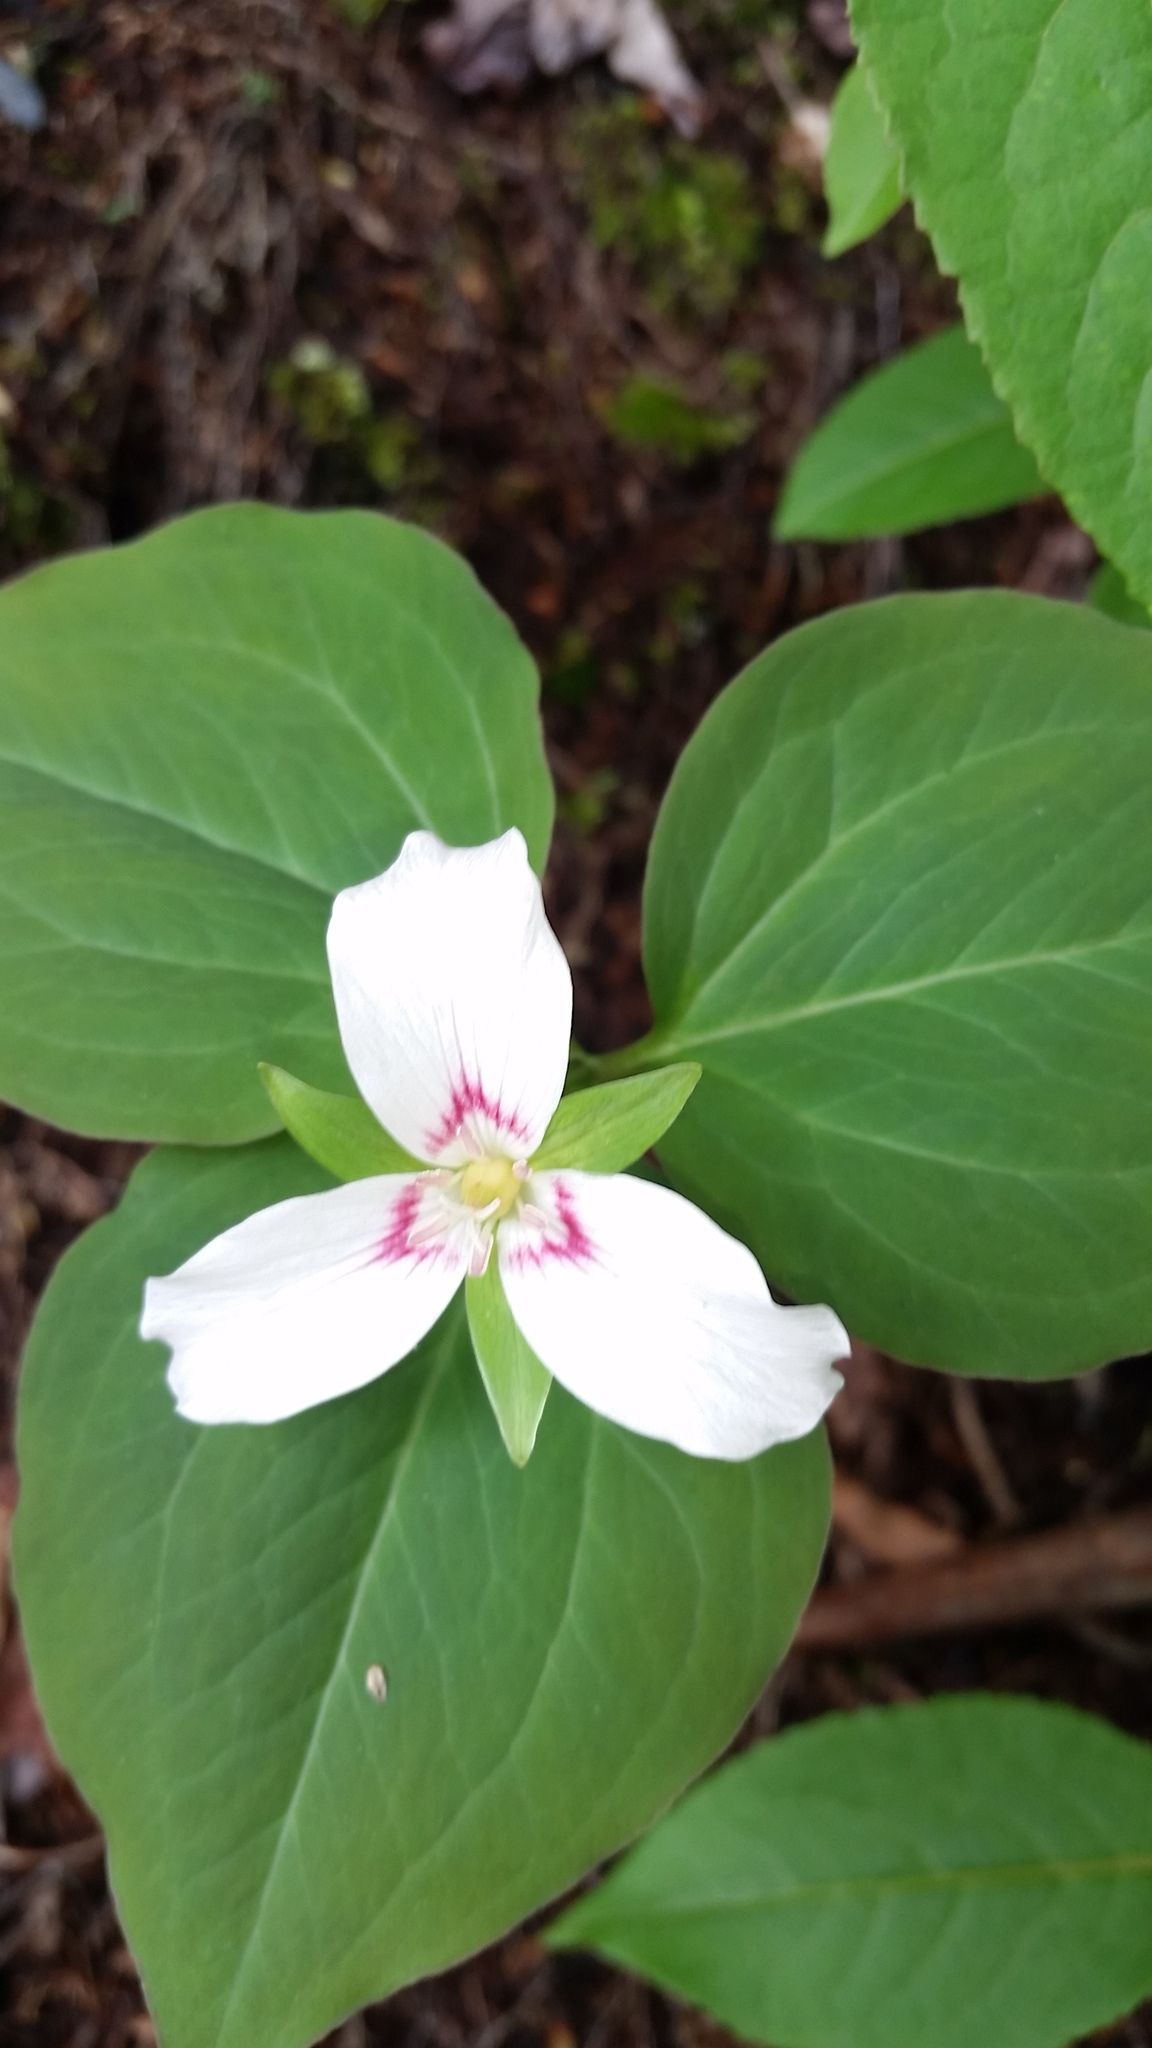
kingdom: Plantae
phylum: Tracheophyta
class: Liliopsida
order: Liliales
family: Melanthiaceae
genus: Trillium
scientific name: Trillium undulatum
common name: Paint trillium
